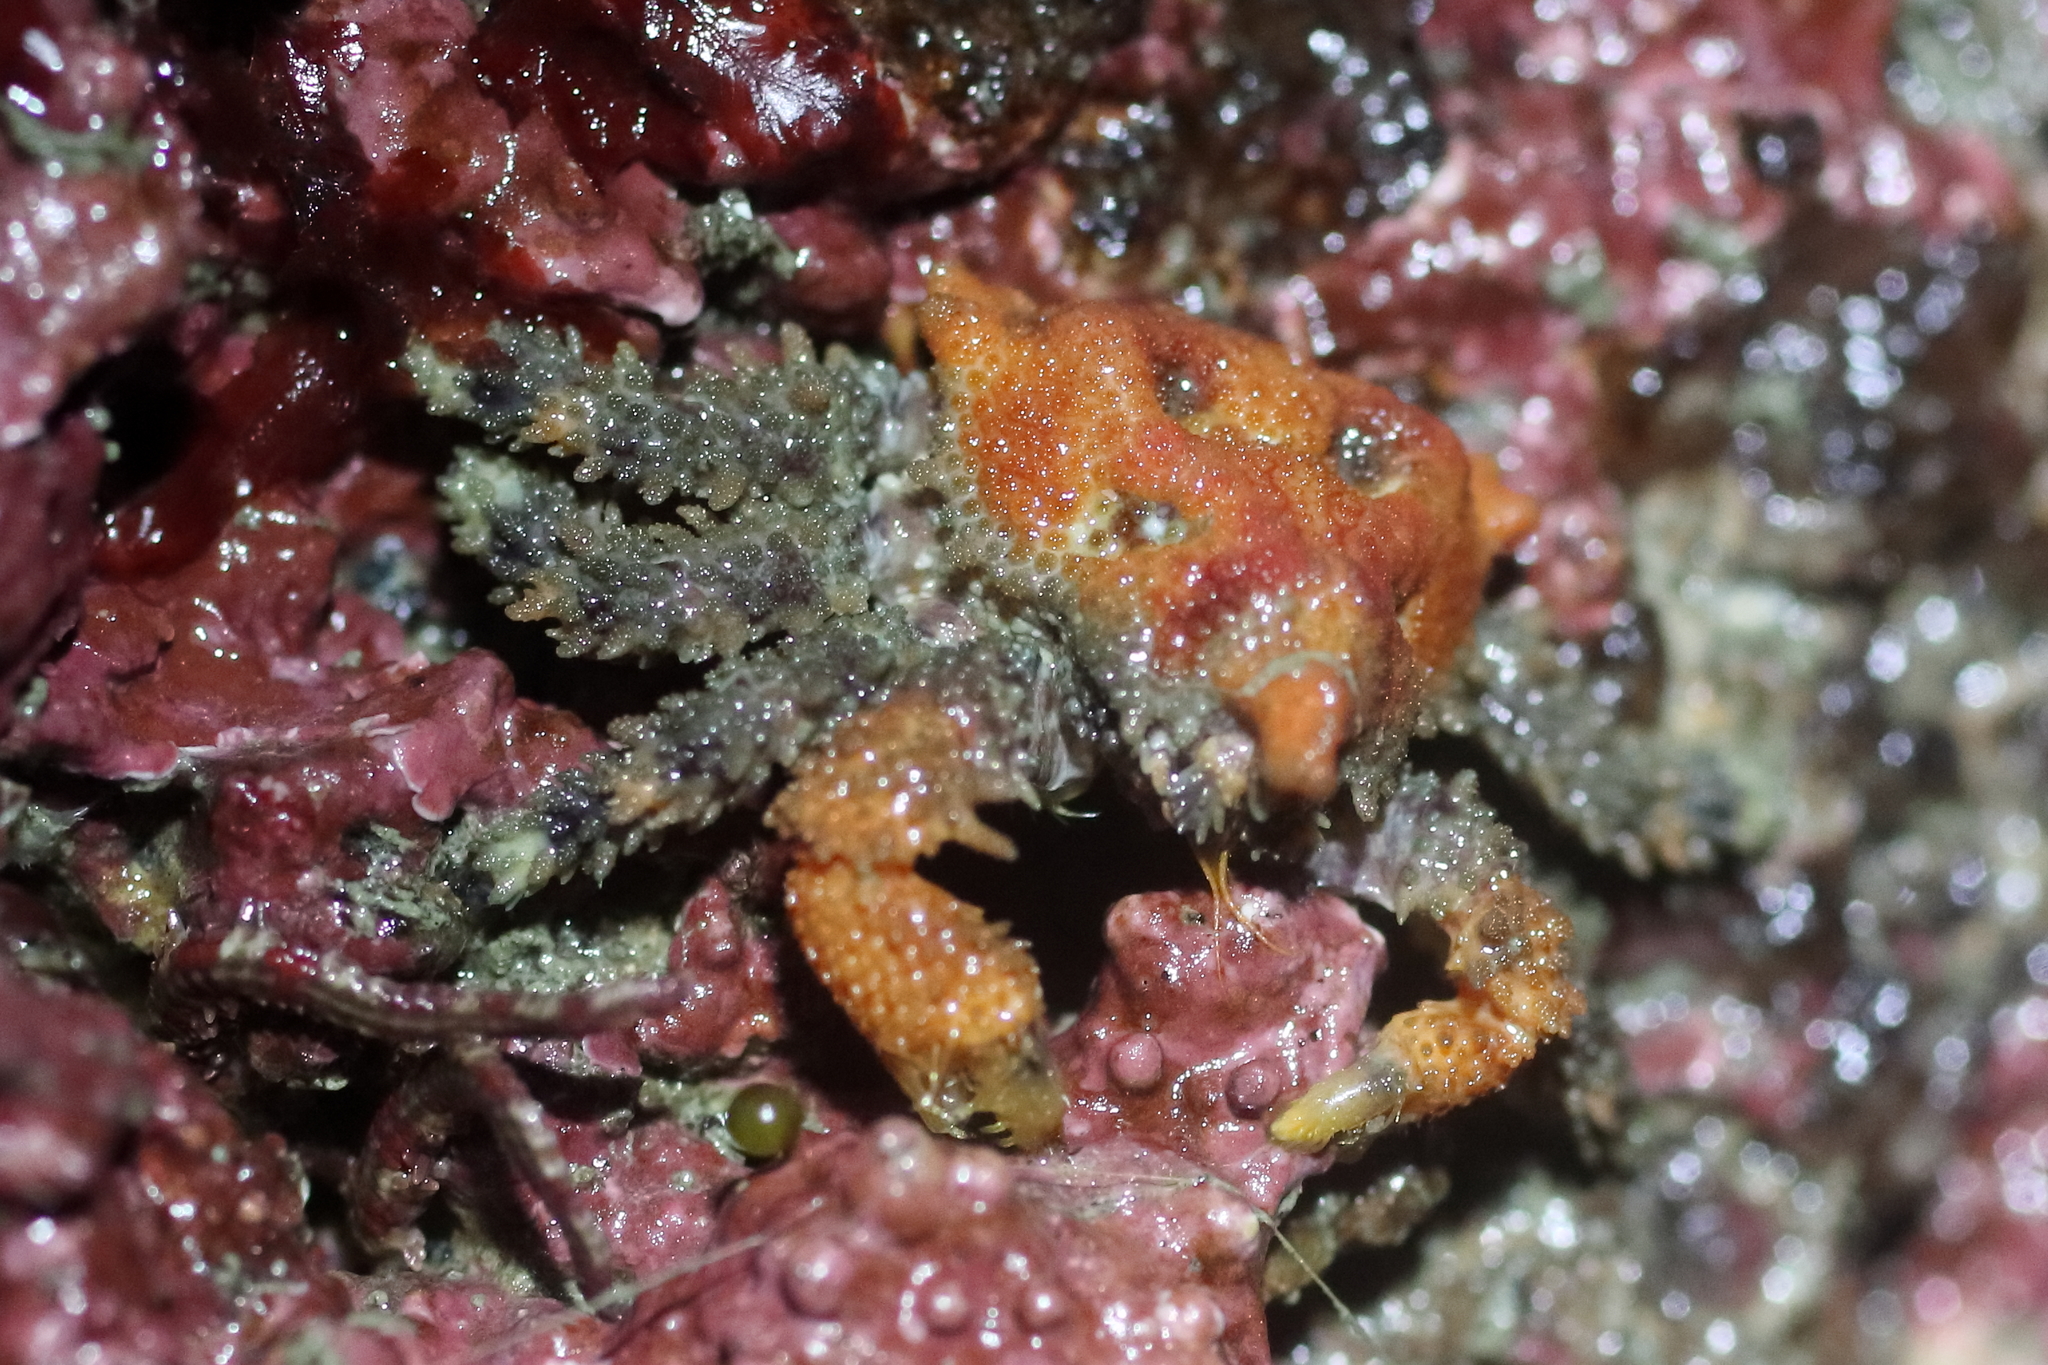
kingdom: Animalia
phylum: Arthropoda
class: Malacostraca
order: Decapoda
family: Lithodidae
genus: Phyllolithodes
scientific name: Phyllolithodes papillosus
